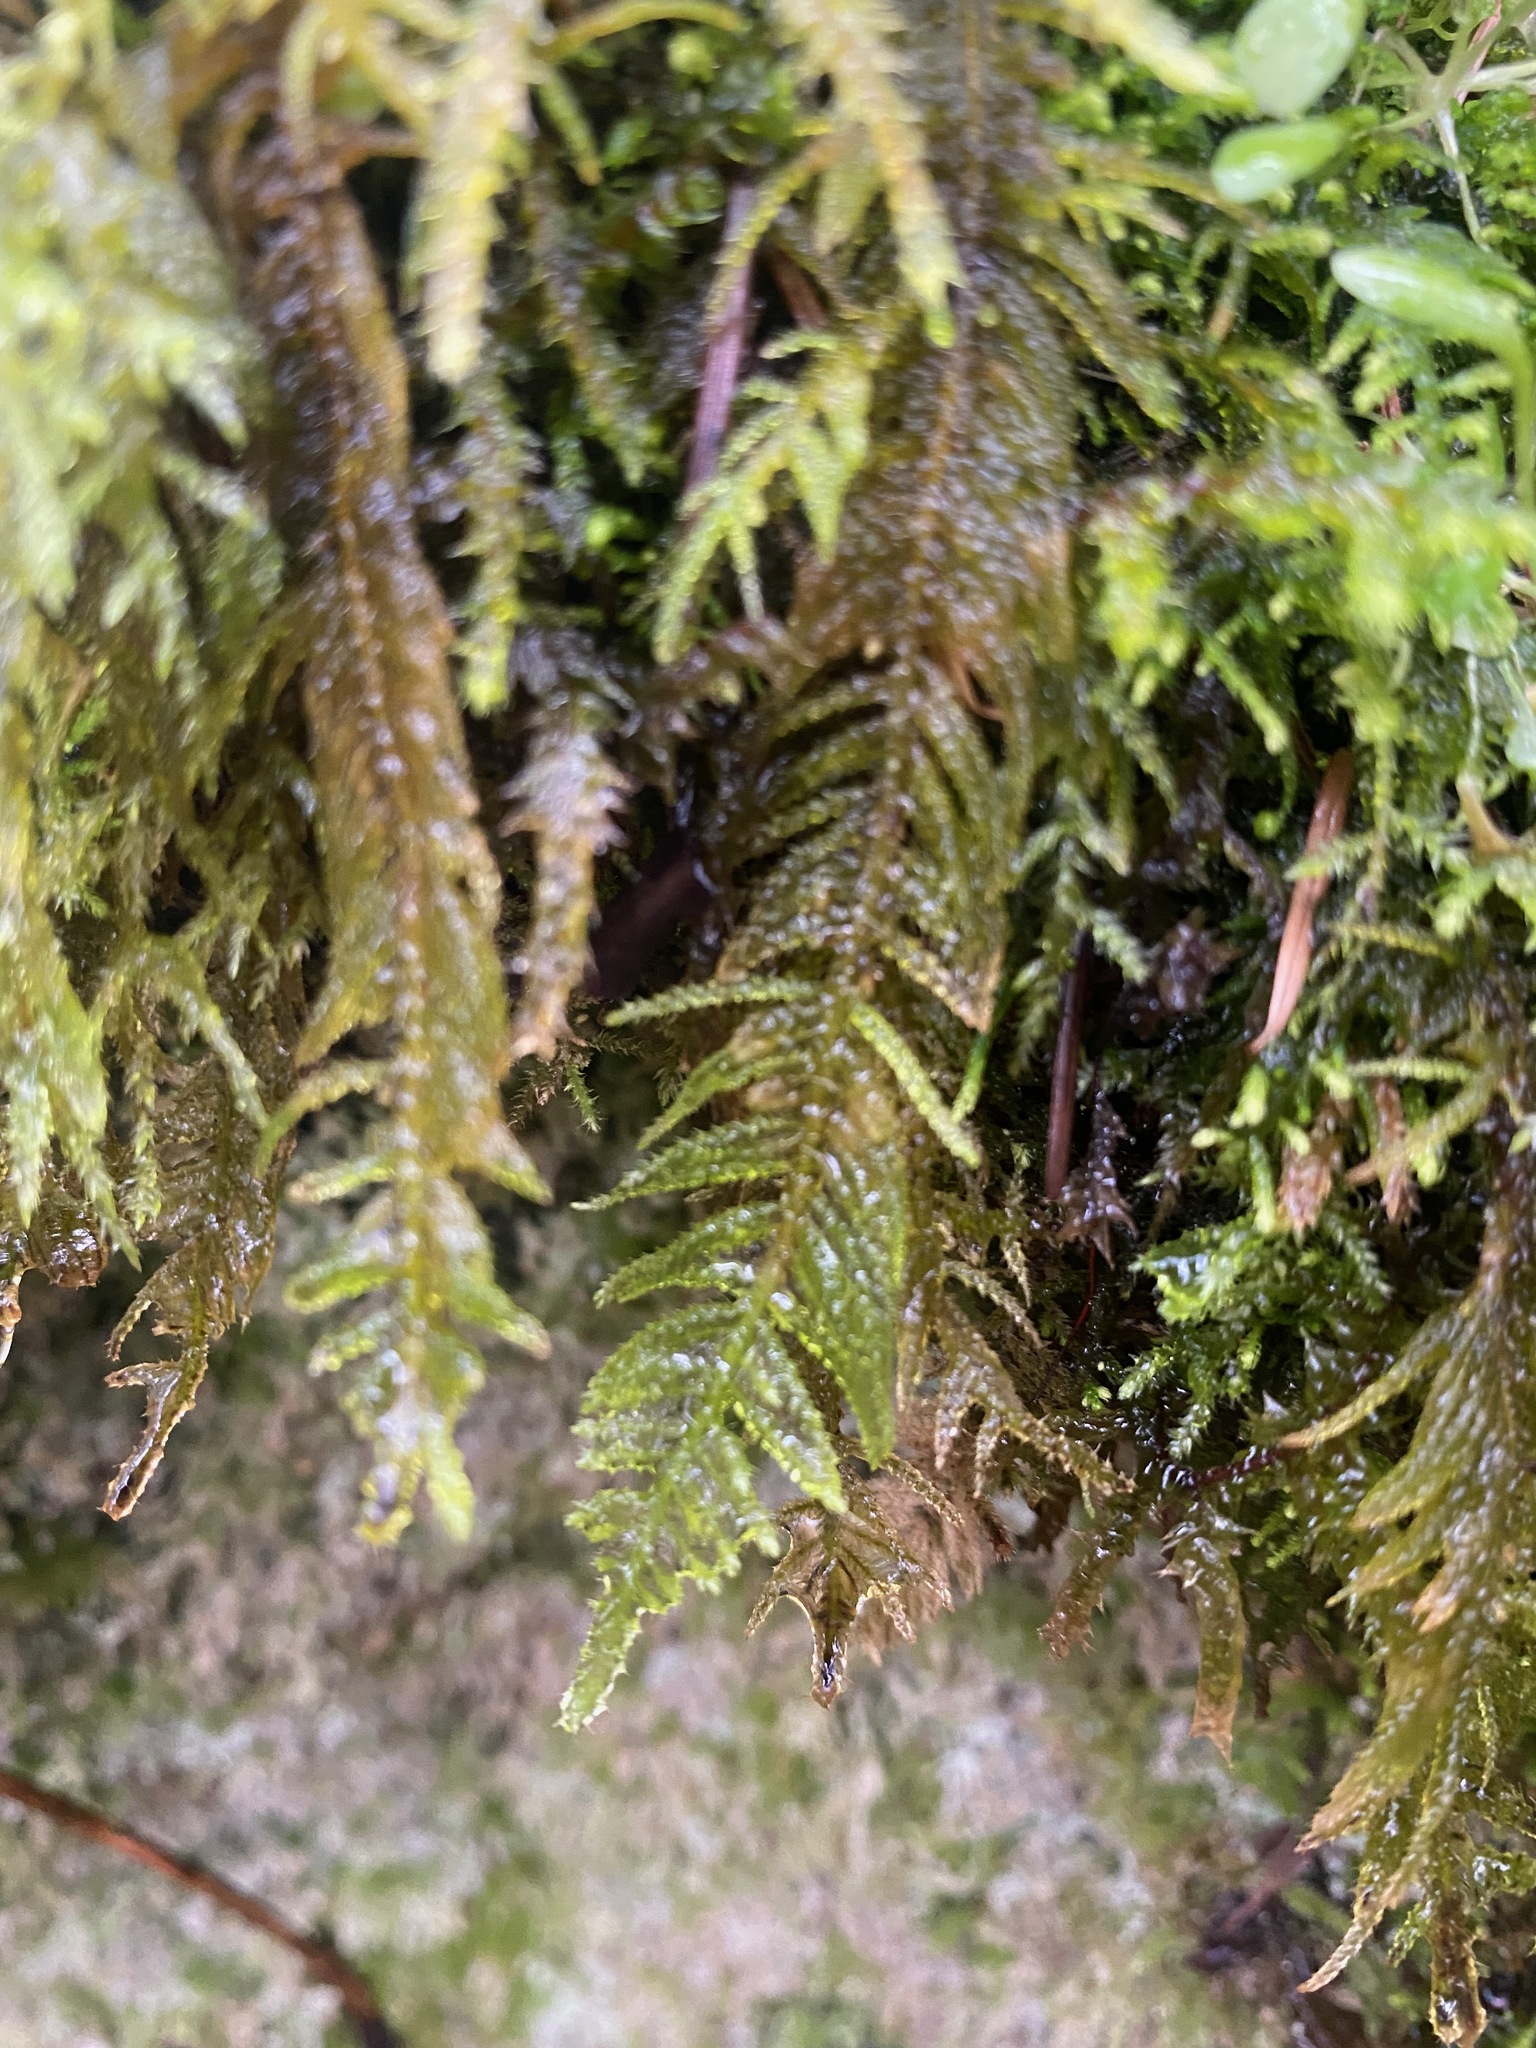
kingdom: Plantae
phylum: Bryophyta
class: Bryopsida
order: Hypnales
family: Brachytheciaceae
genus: Kindbergia
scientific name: Kindbergia oregana
